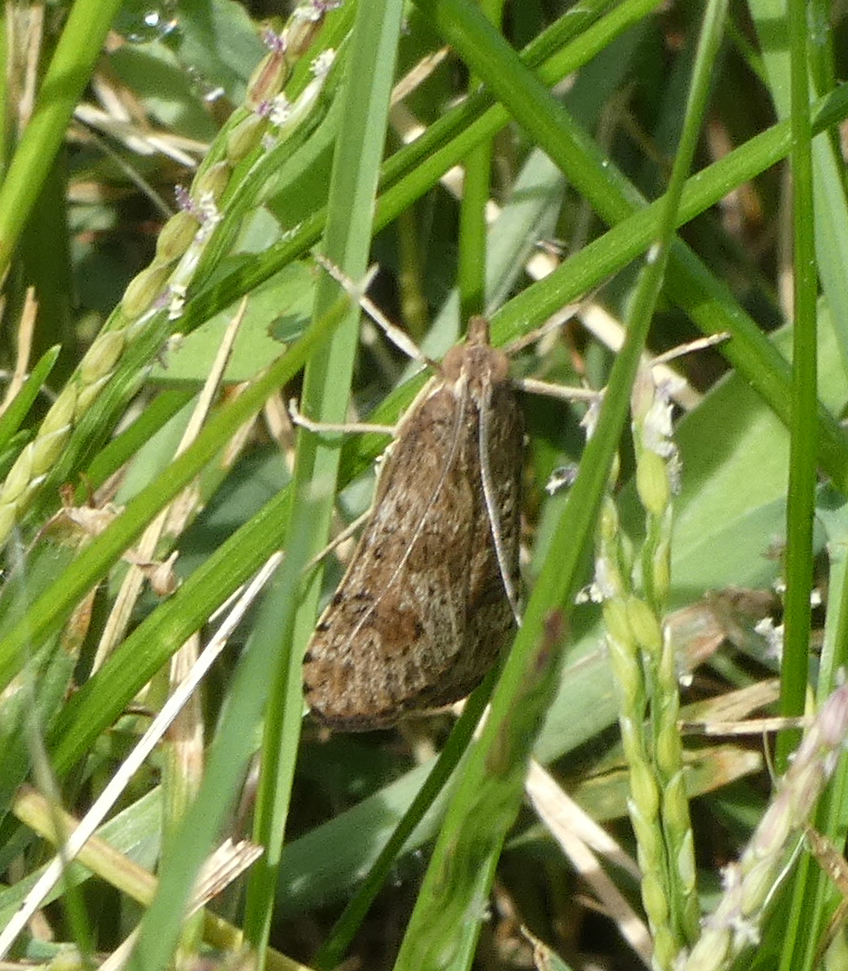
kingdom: Animalia
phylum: Arthropoda
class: Insecta
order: Lepidoptera
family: Crambidae
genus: Nomophila
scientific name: Nomophila nearctica
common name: American rush veneer
